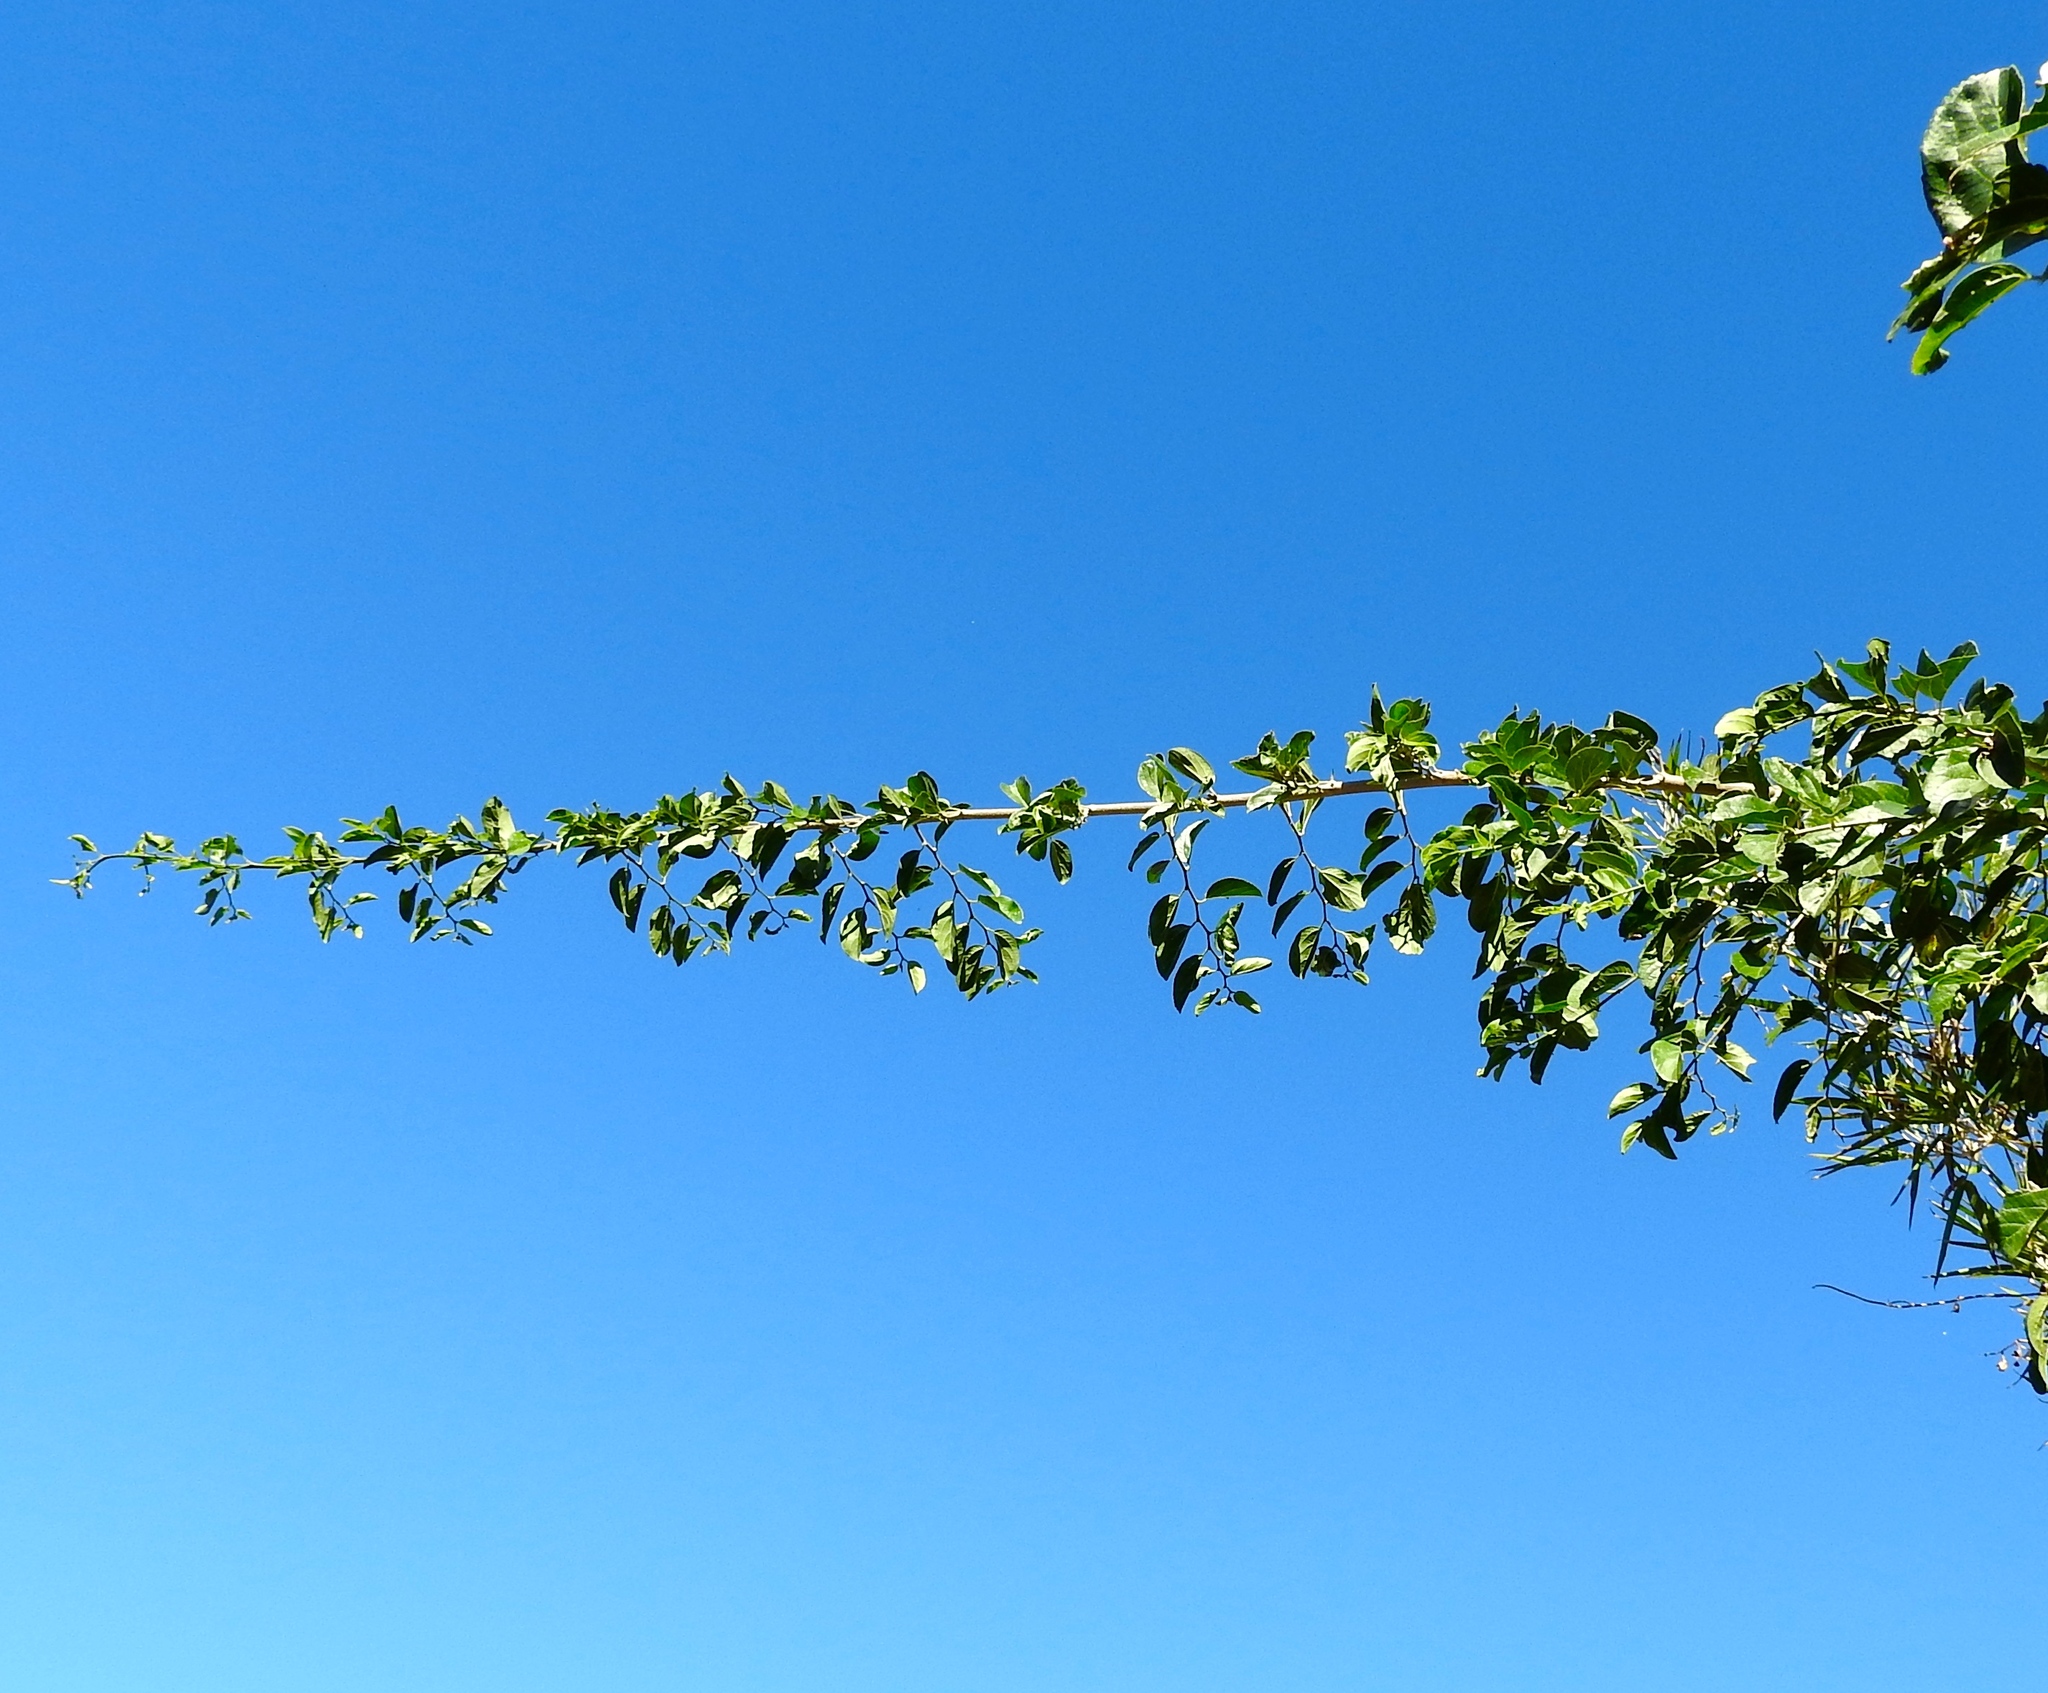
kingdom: Plantae
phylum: Tracheophyta
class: Magnoliopsida
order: Rosales
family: Cannabaceae
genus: Celtis
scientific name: Celtis iguanaea
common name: Iguana hackberry
